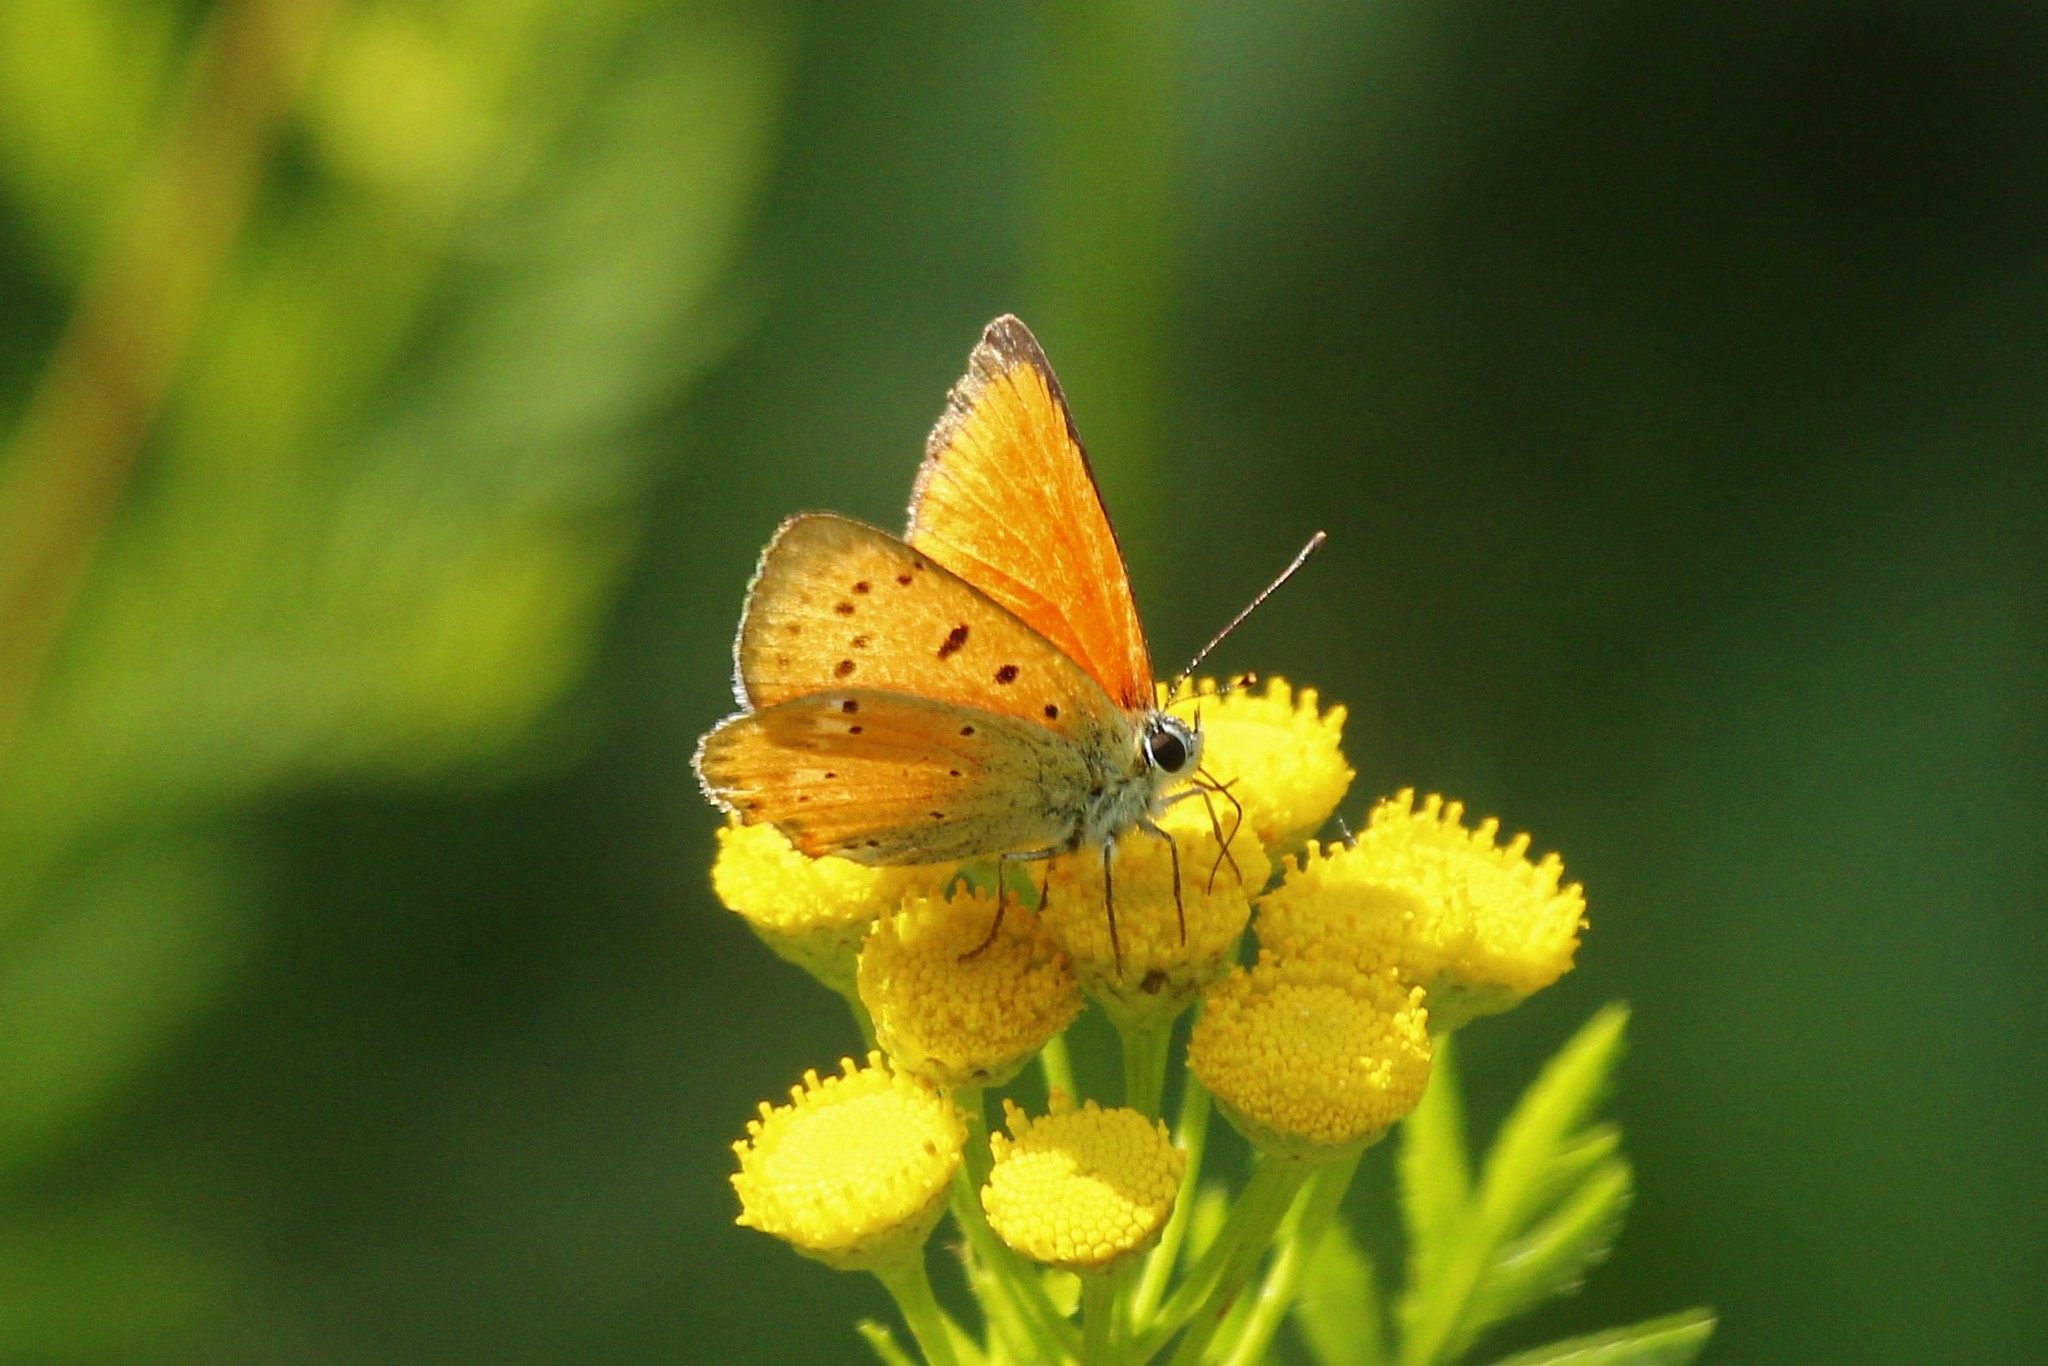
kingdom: Animalia
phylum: Arthropoda
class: Insecta
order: Lepidoptera
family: Lycaenidae
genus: Lycaena
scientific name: Lycaena virgaureae
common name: Scarce copper
